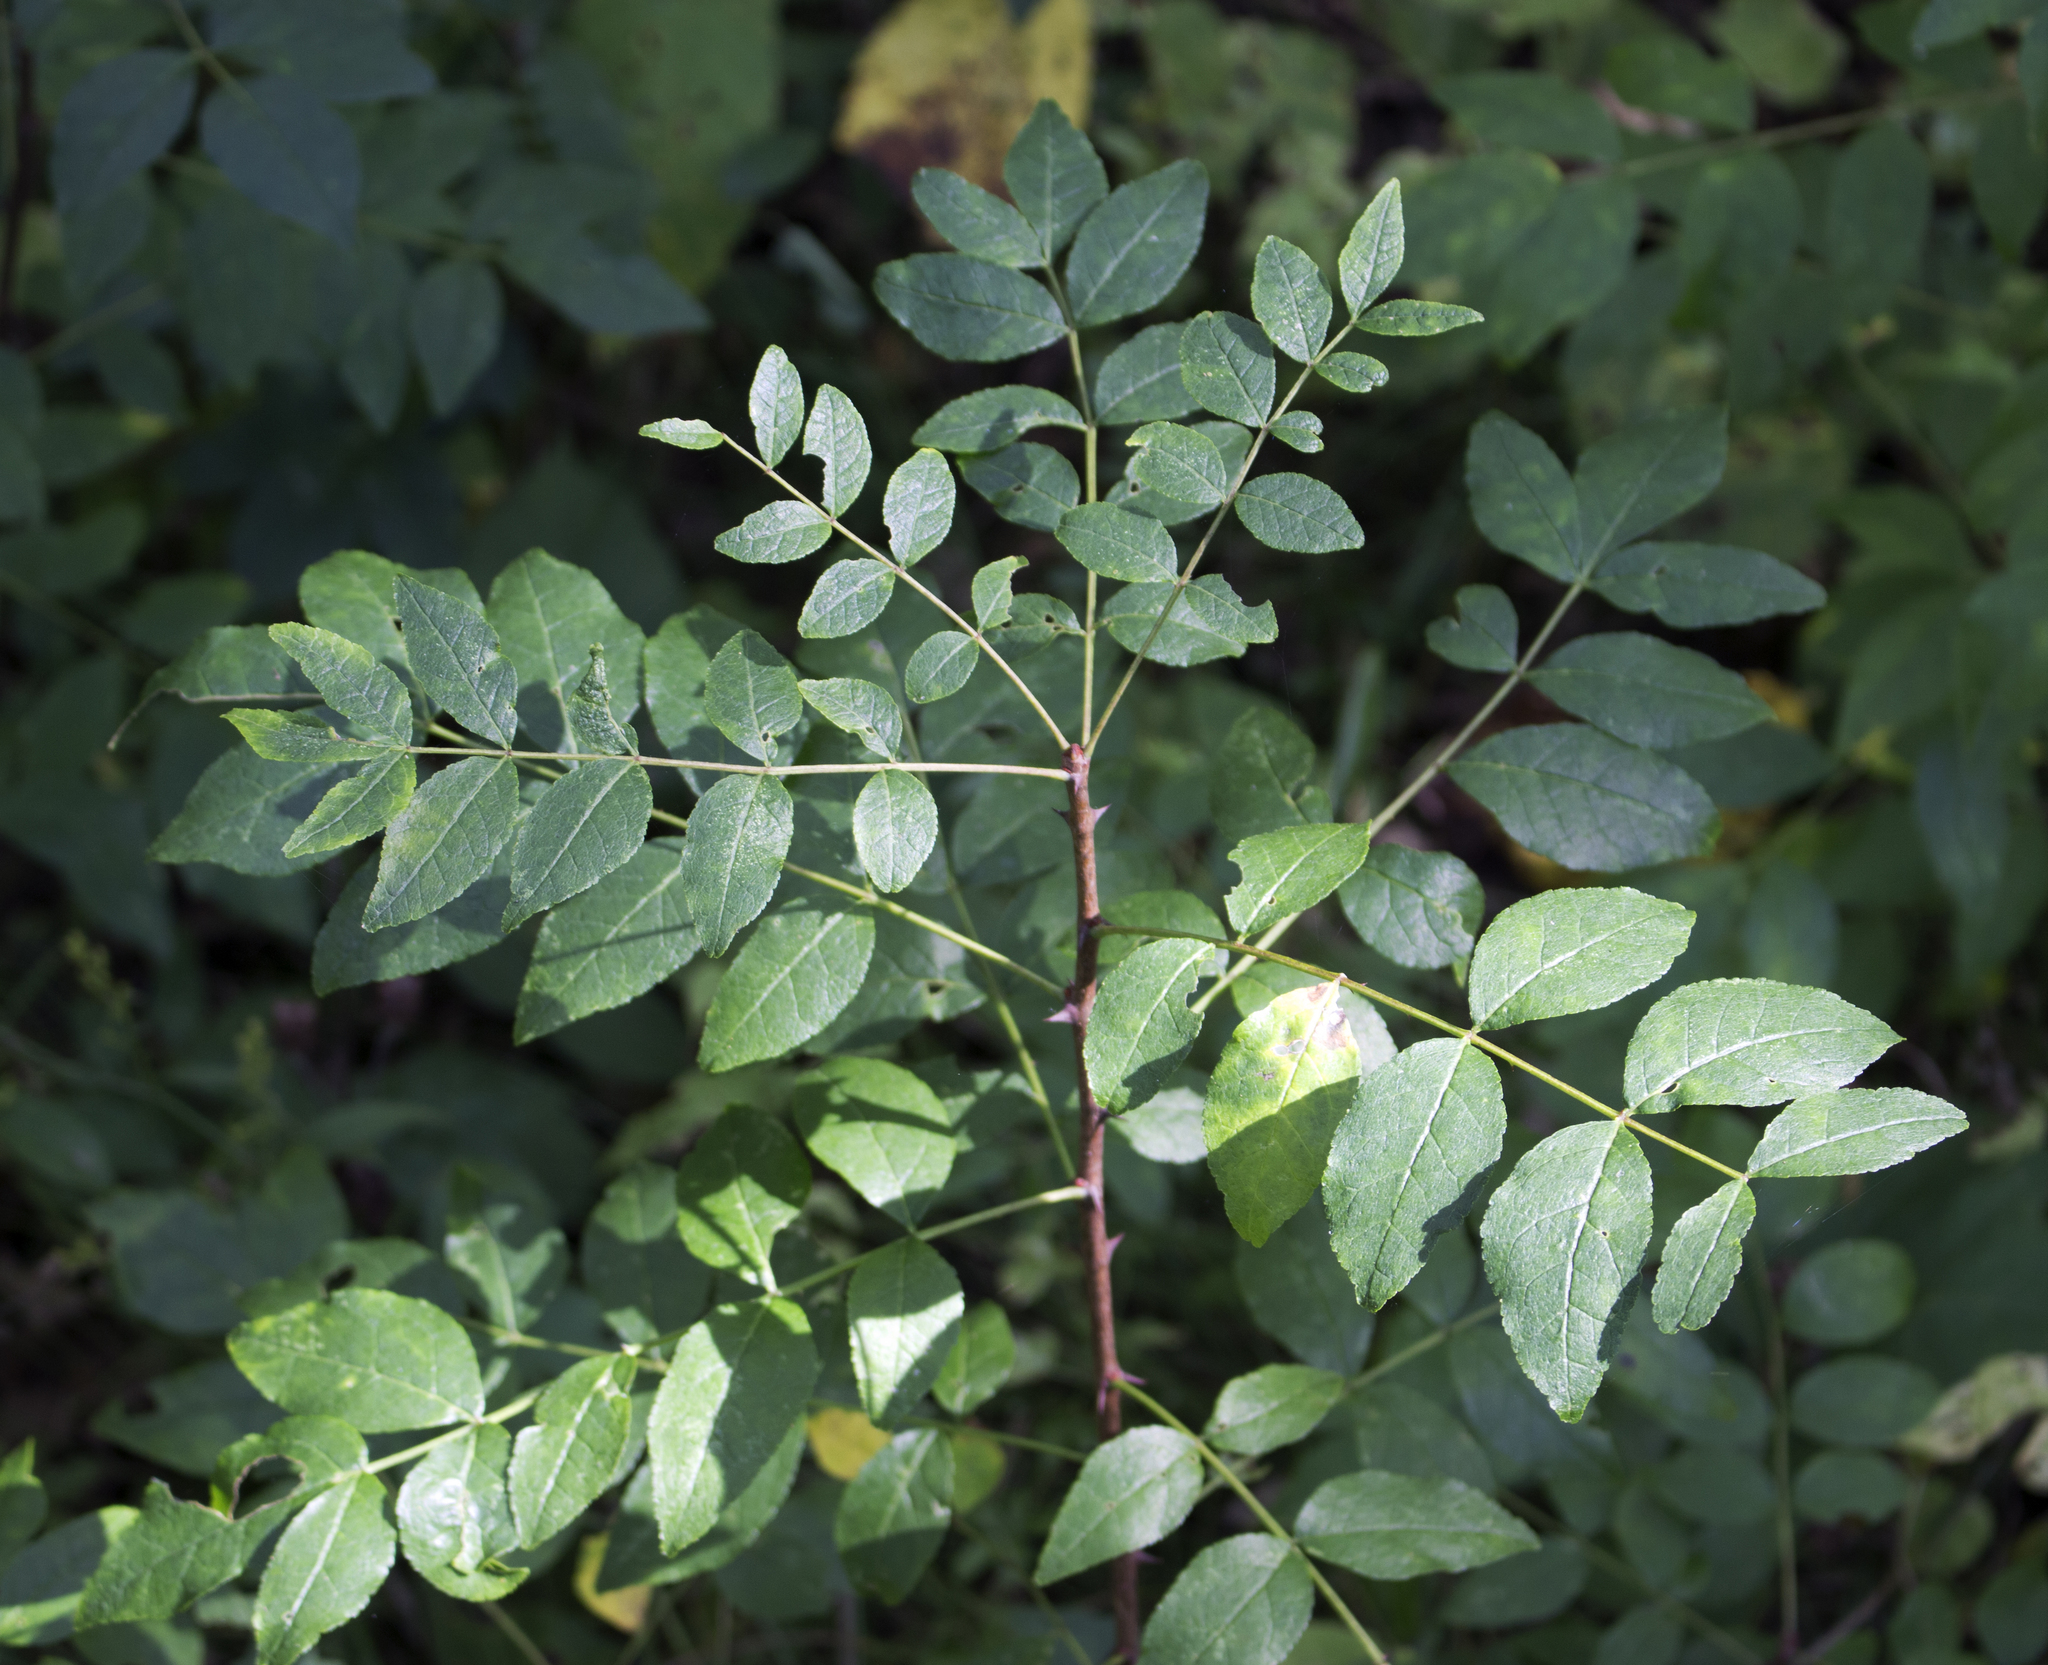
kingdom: Plantae
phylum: Tracheophyta
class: Magnoliopsida
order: Sapindales
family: Rutaceae
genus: Zanthoxylum
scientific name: Zanthoxylum americanum
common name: Northern prickly-ash
